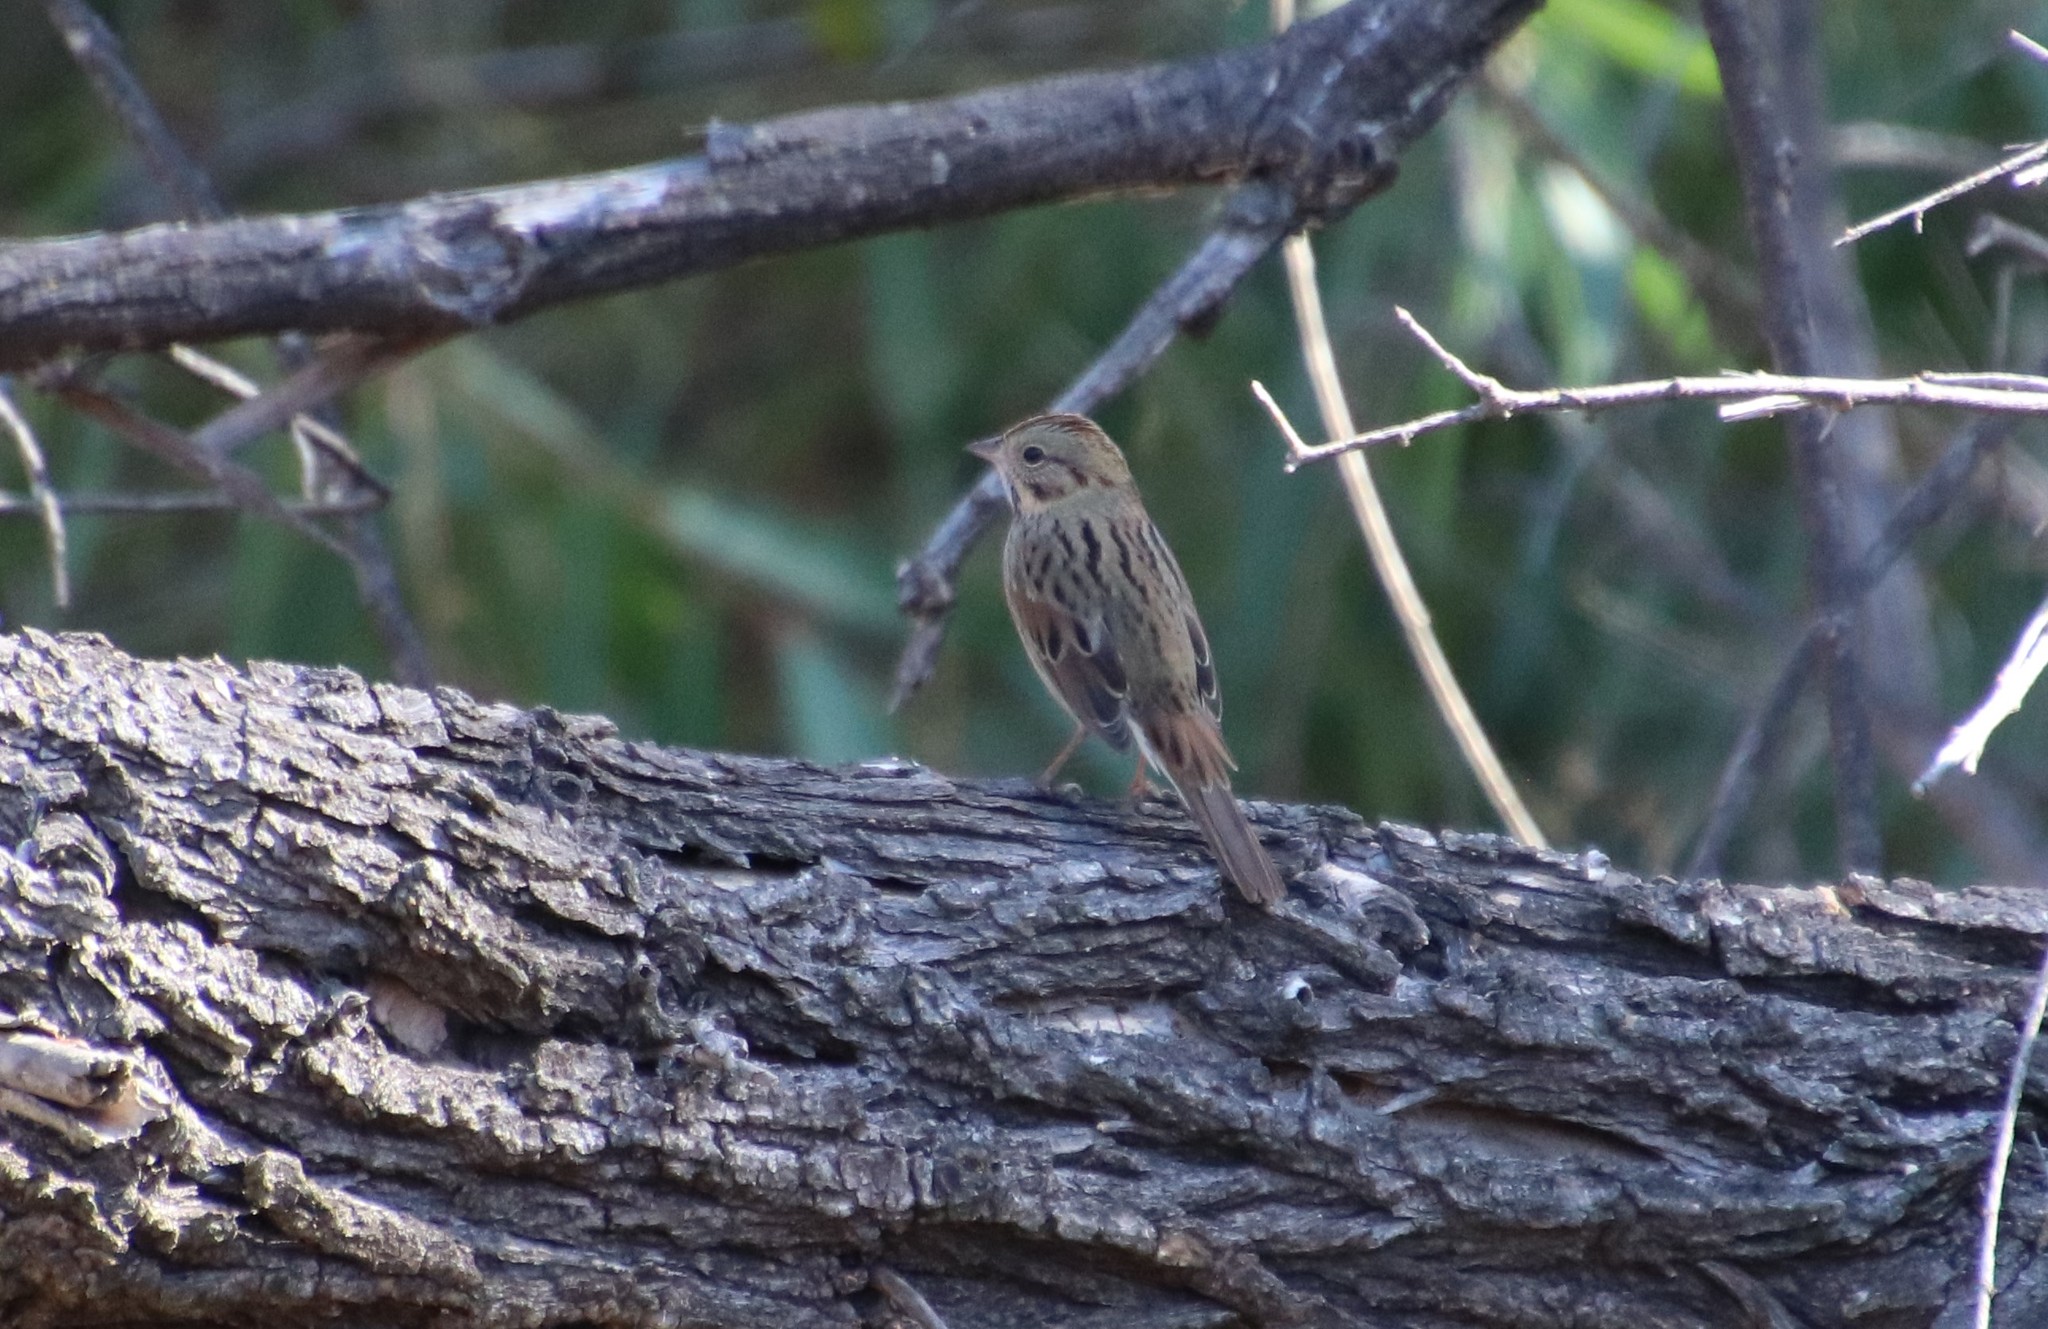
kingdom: Animalia
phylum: Chordata
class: Aves
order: Passeriformes
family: Passerellidae
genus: Melospiza
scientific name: Melospiza lincolnii
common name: Lincoln's sparrow
